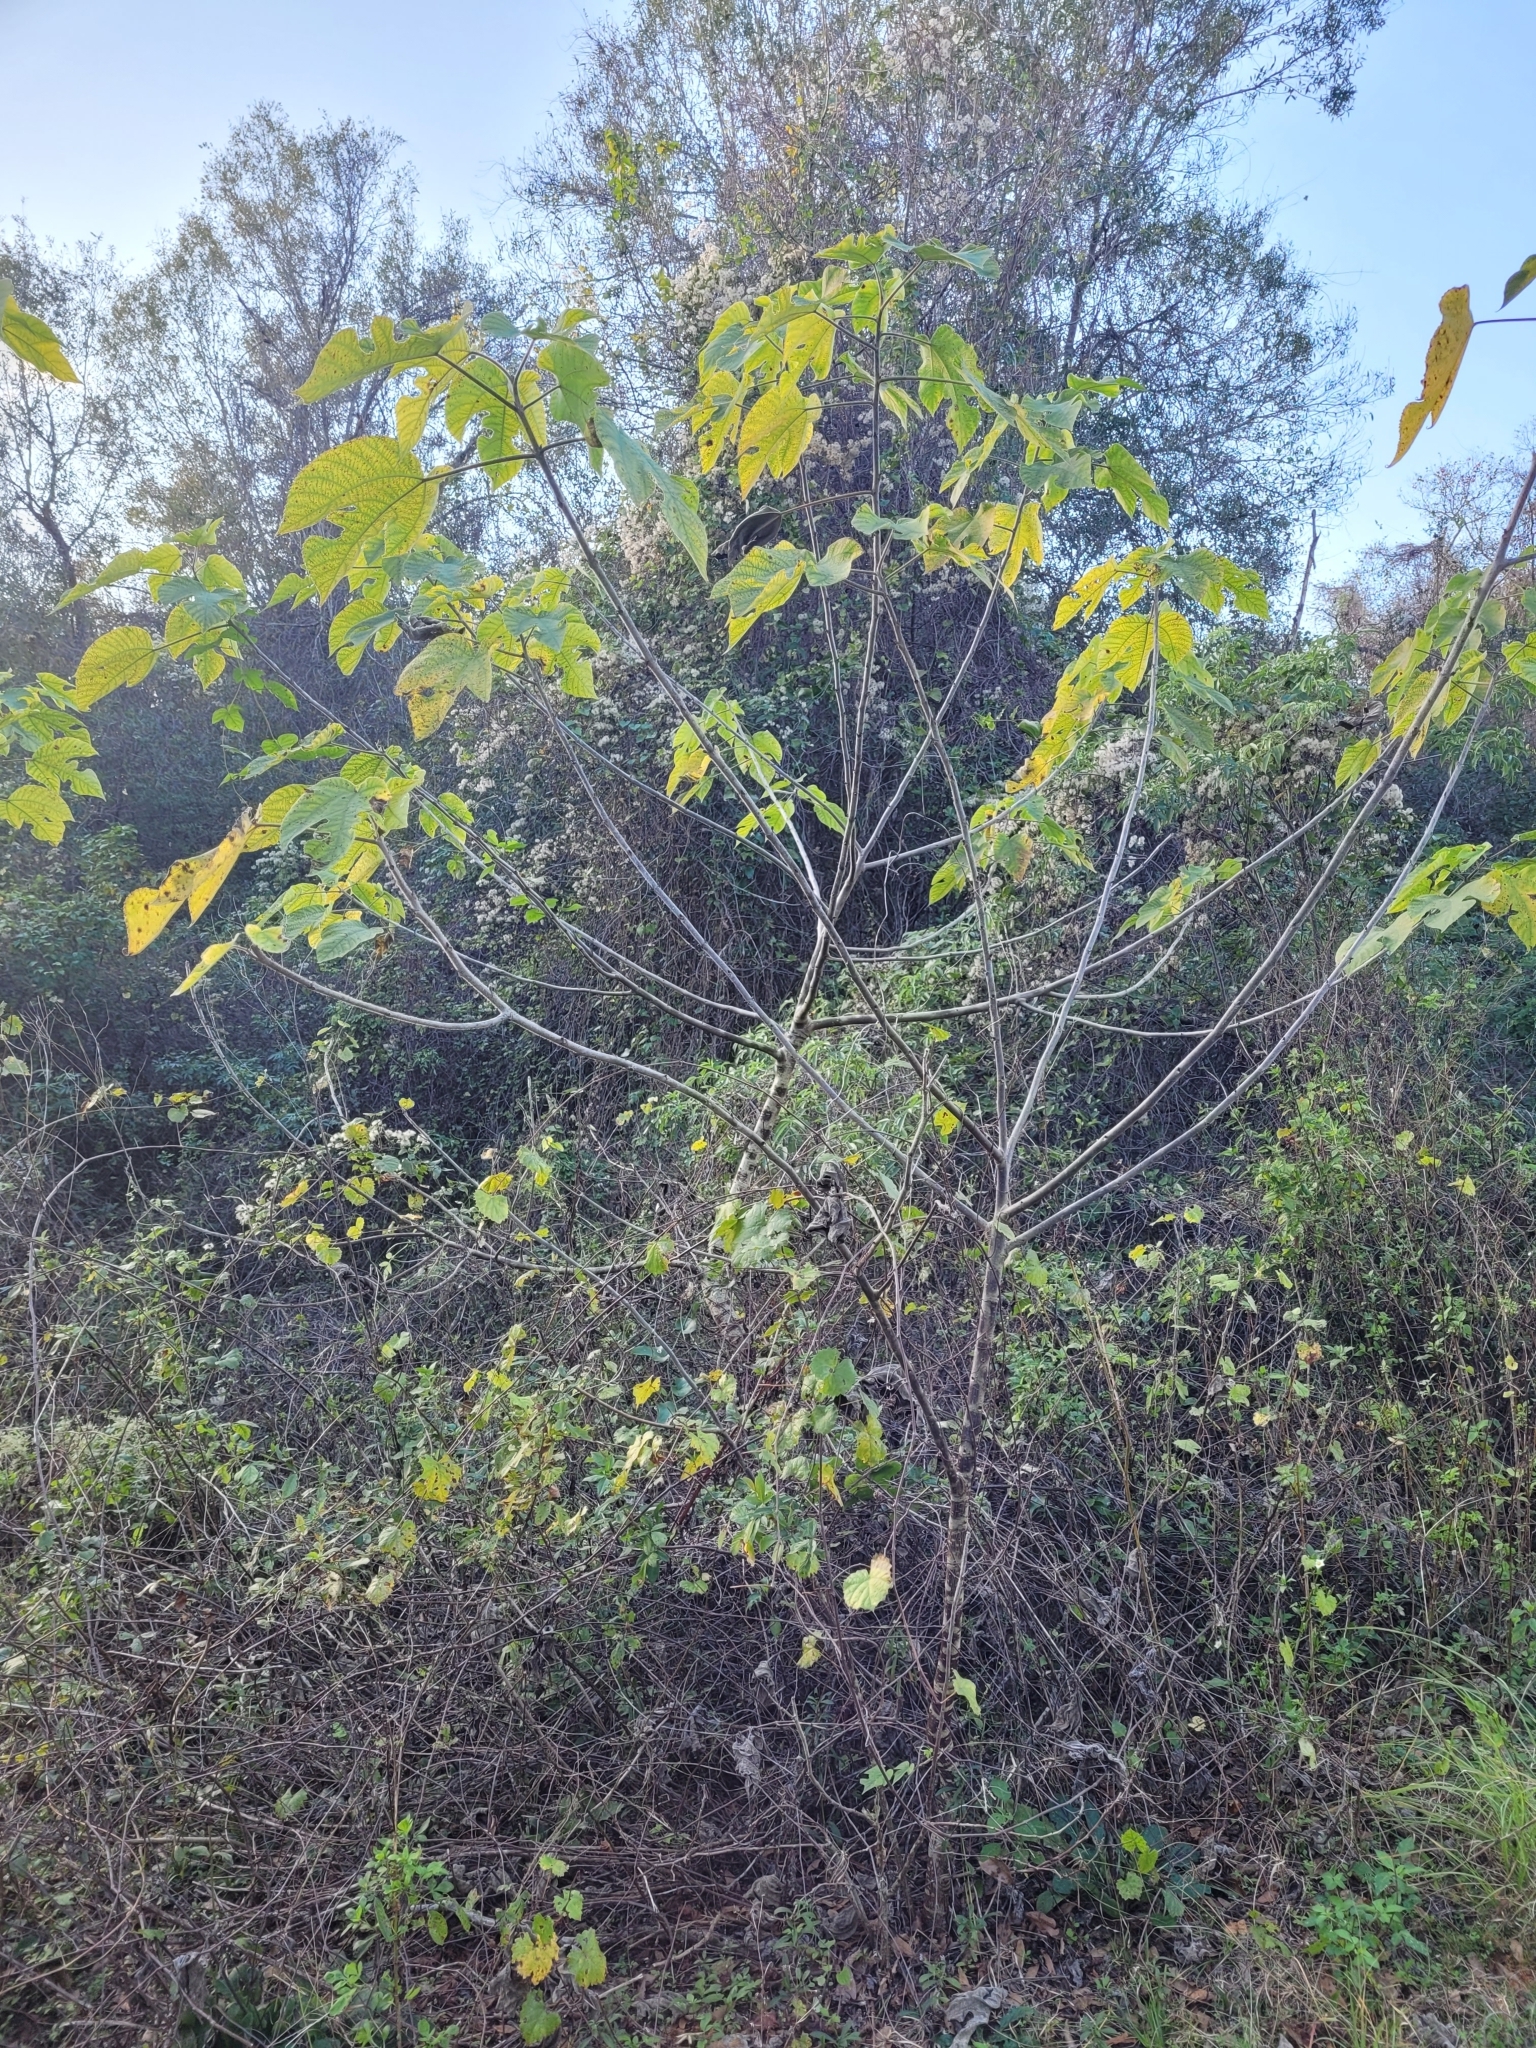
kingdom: Plantae
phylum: Tracheophyta
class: Magnoliopsida
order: Rosales
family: Moraceae
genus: Broussonetia
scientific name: Broussonetia papyrifera
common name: Paper mulberry
